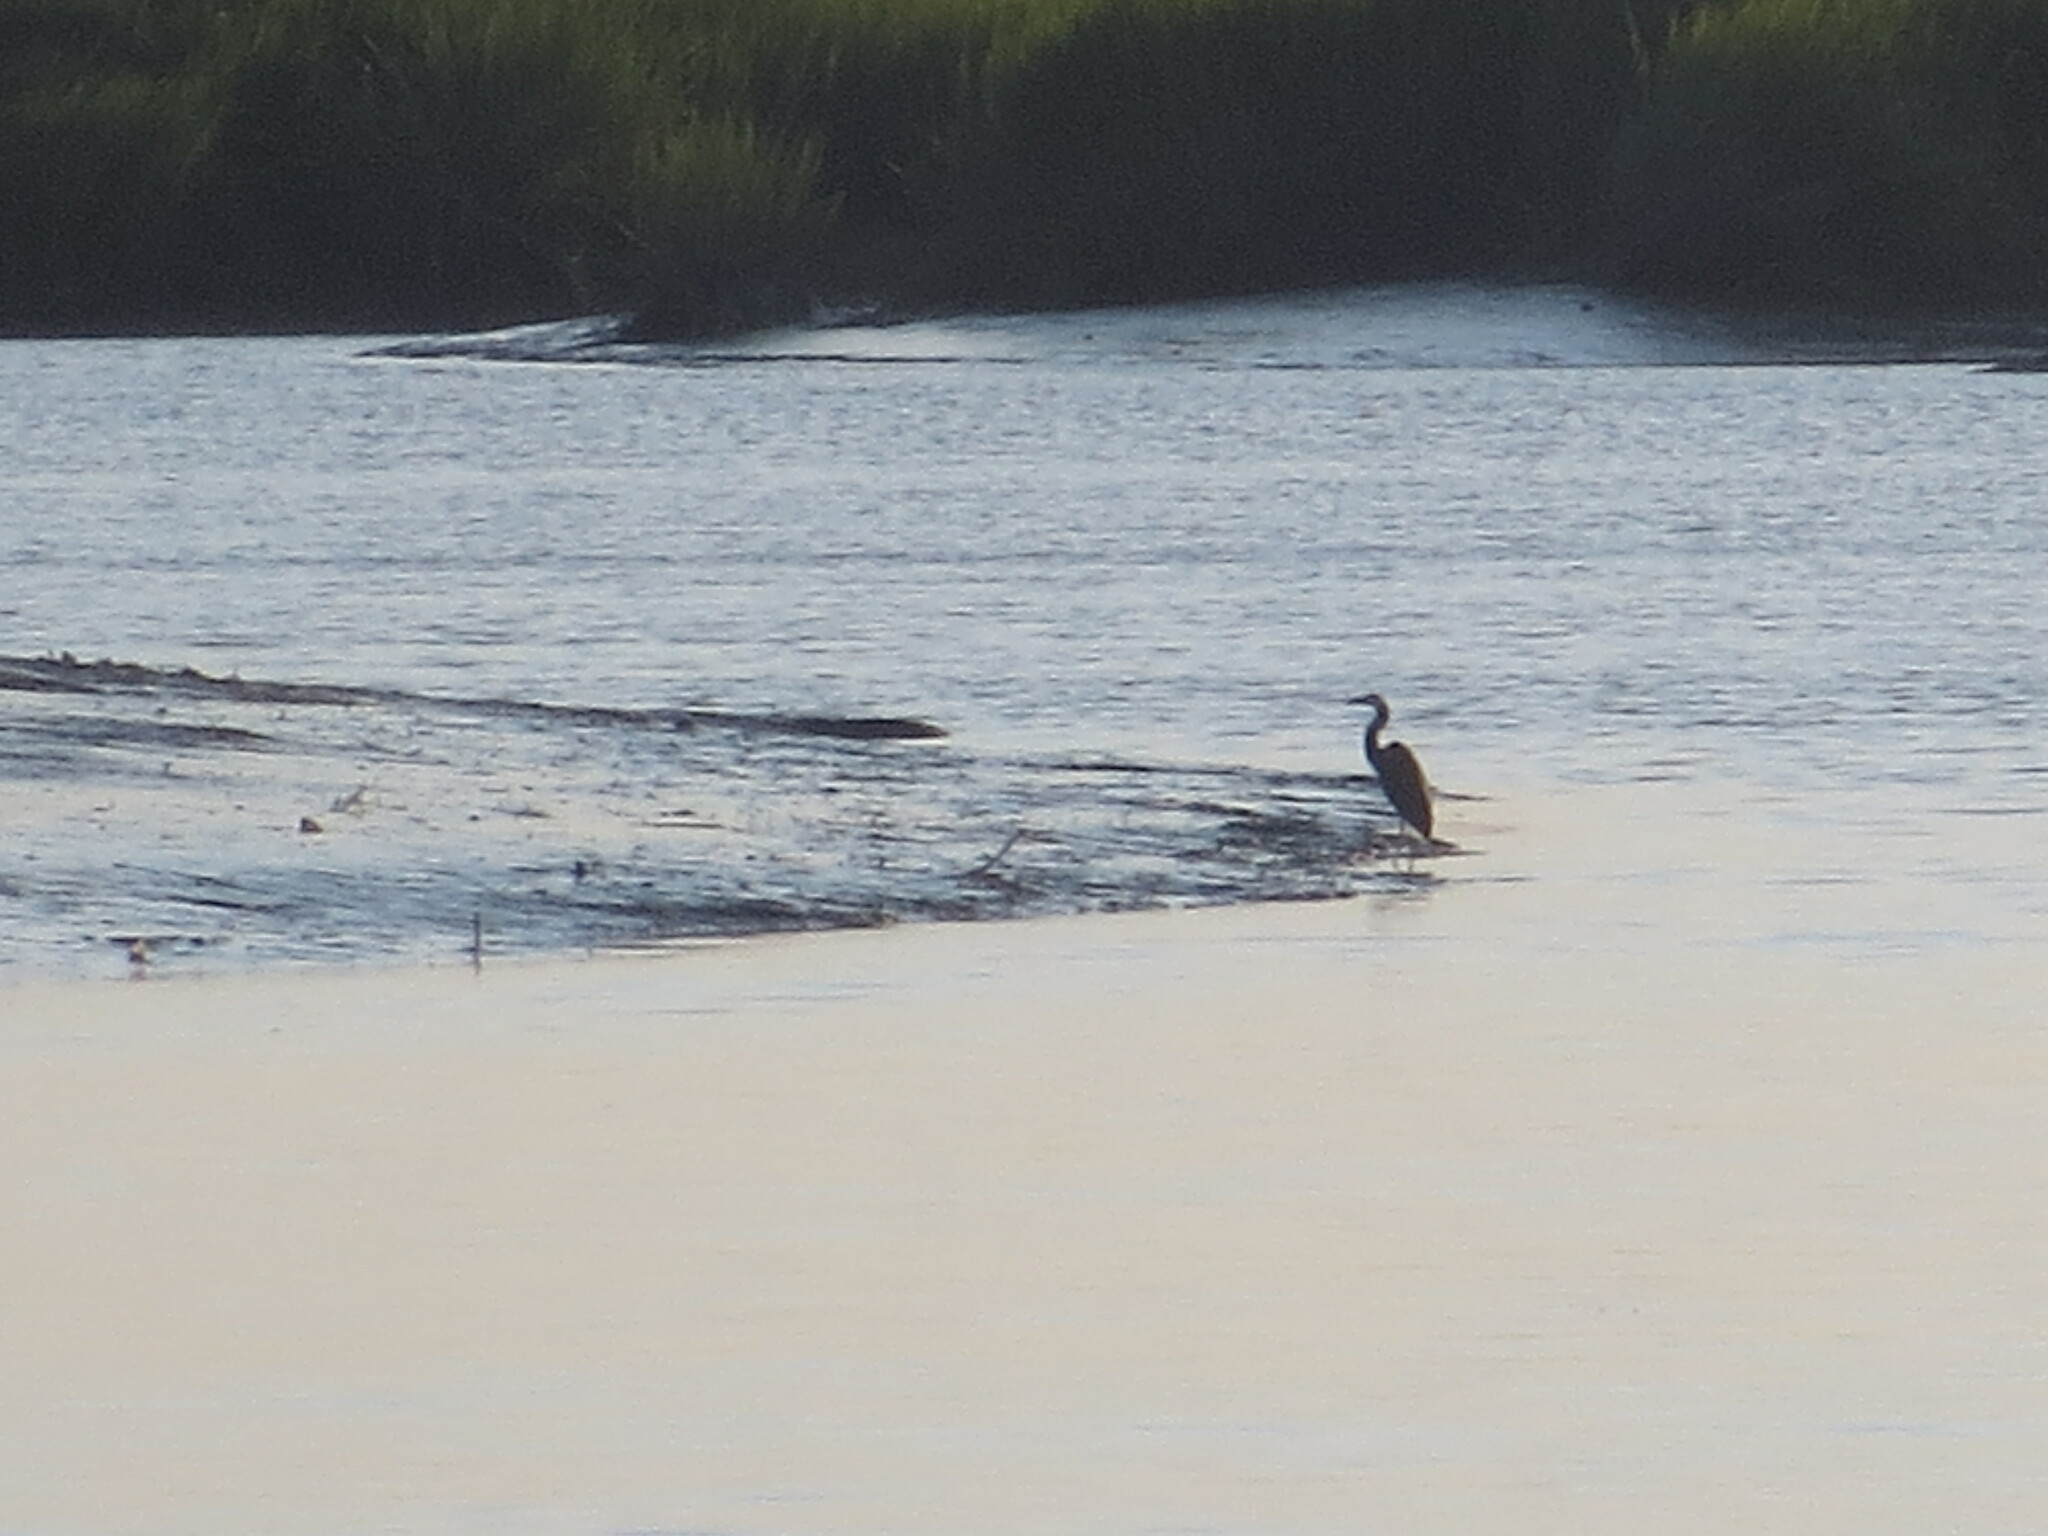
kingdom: Animalia
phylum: Chordata
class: Aves
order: Pelecaniformes
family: Ardeidae
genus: Ardea
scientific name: Ardea herodias
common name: Great blue heron
